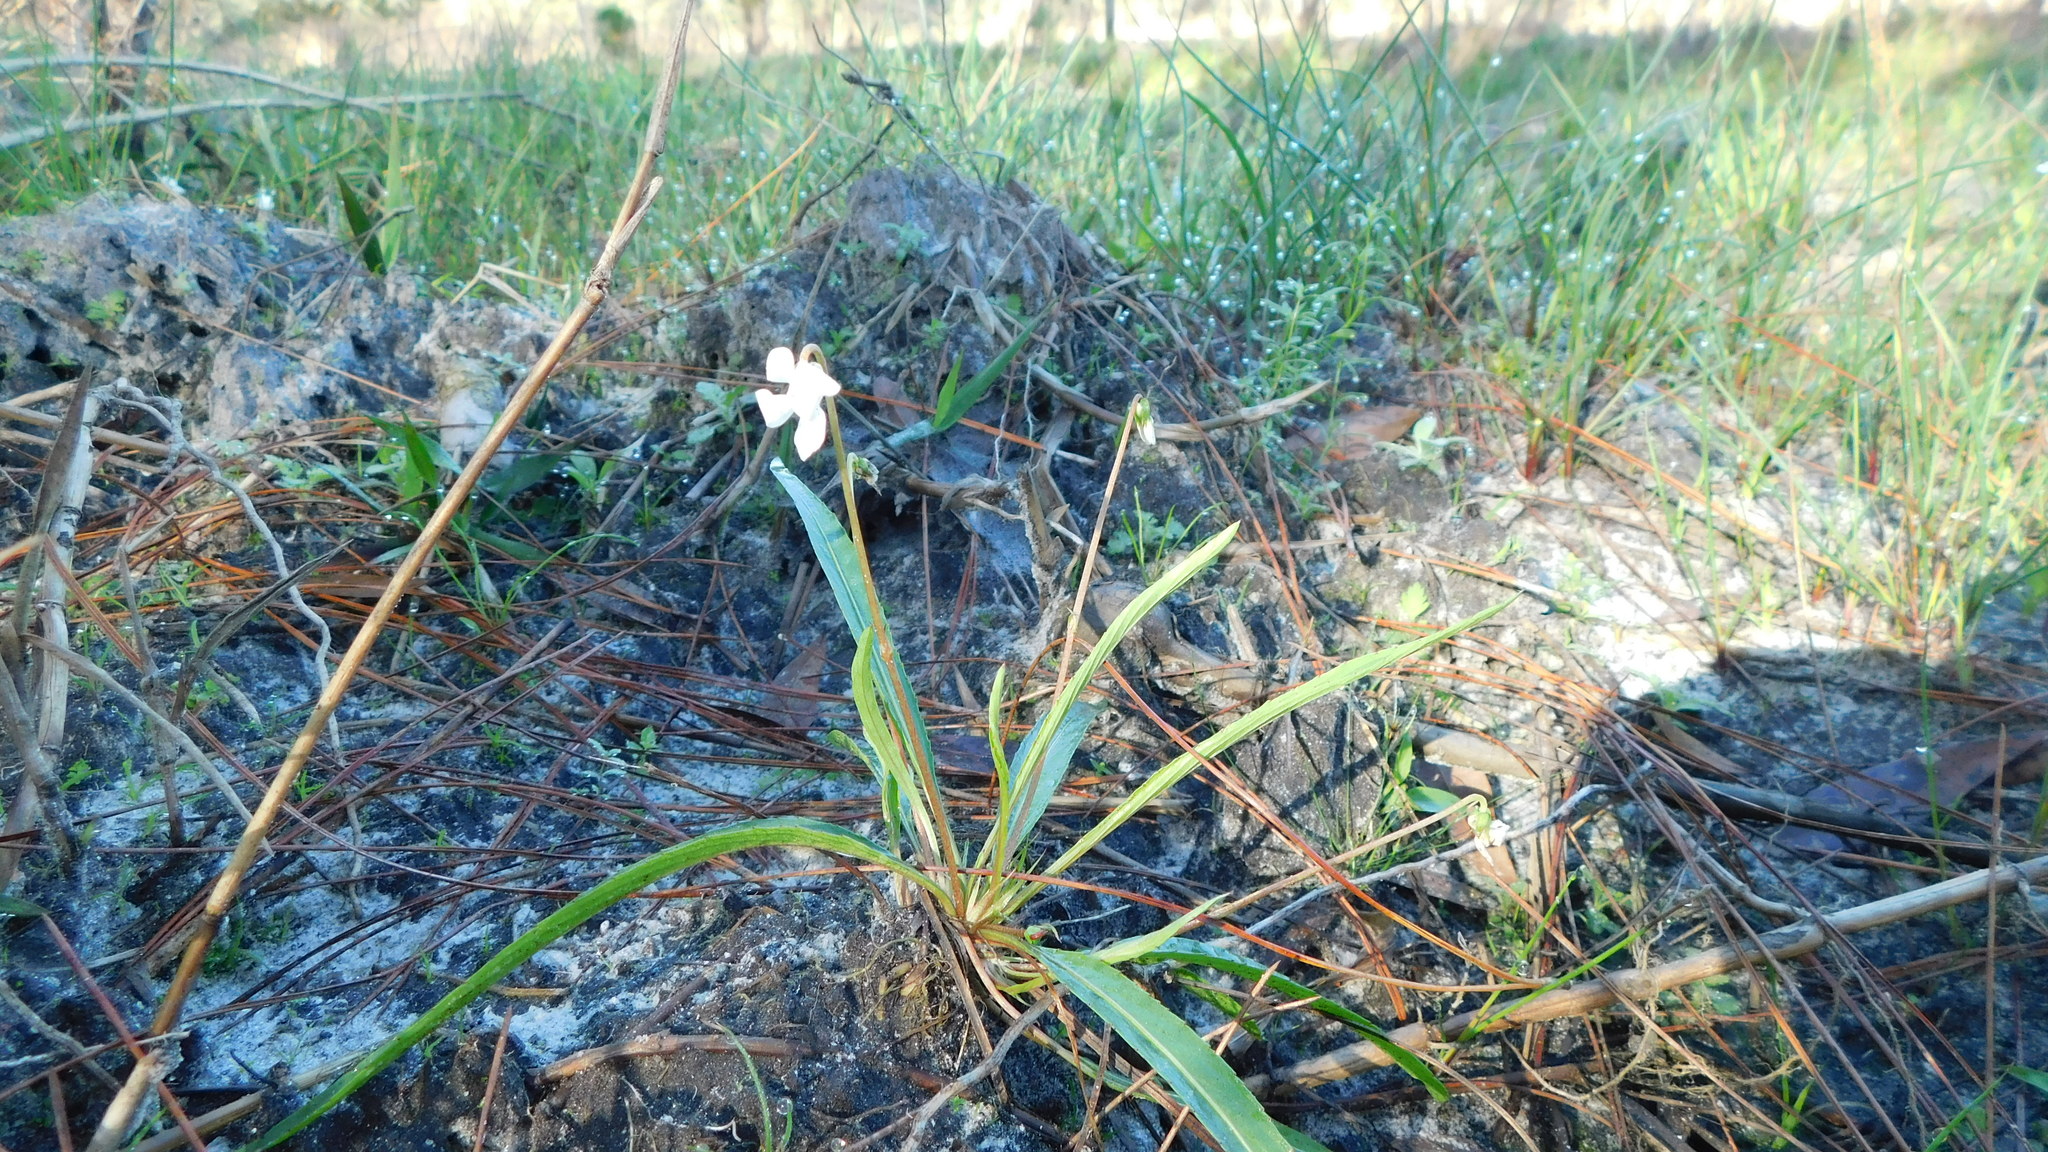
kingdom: Plantae
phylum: Tracheophyta
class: Magnoliopsida
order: Malpighiales
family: Violaceae
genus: Viola
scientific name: Viola lanceolata
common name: Bog white violet
